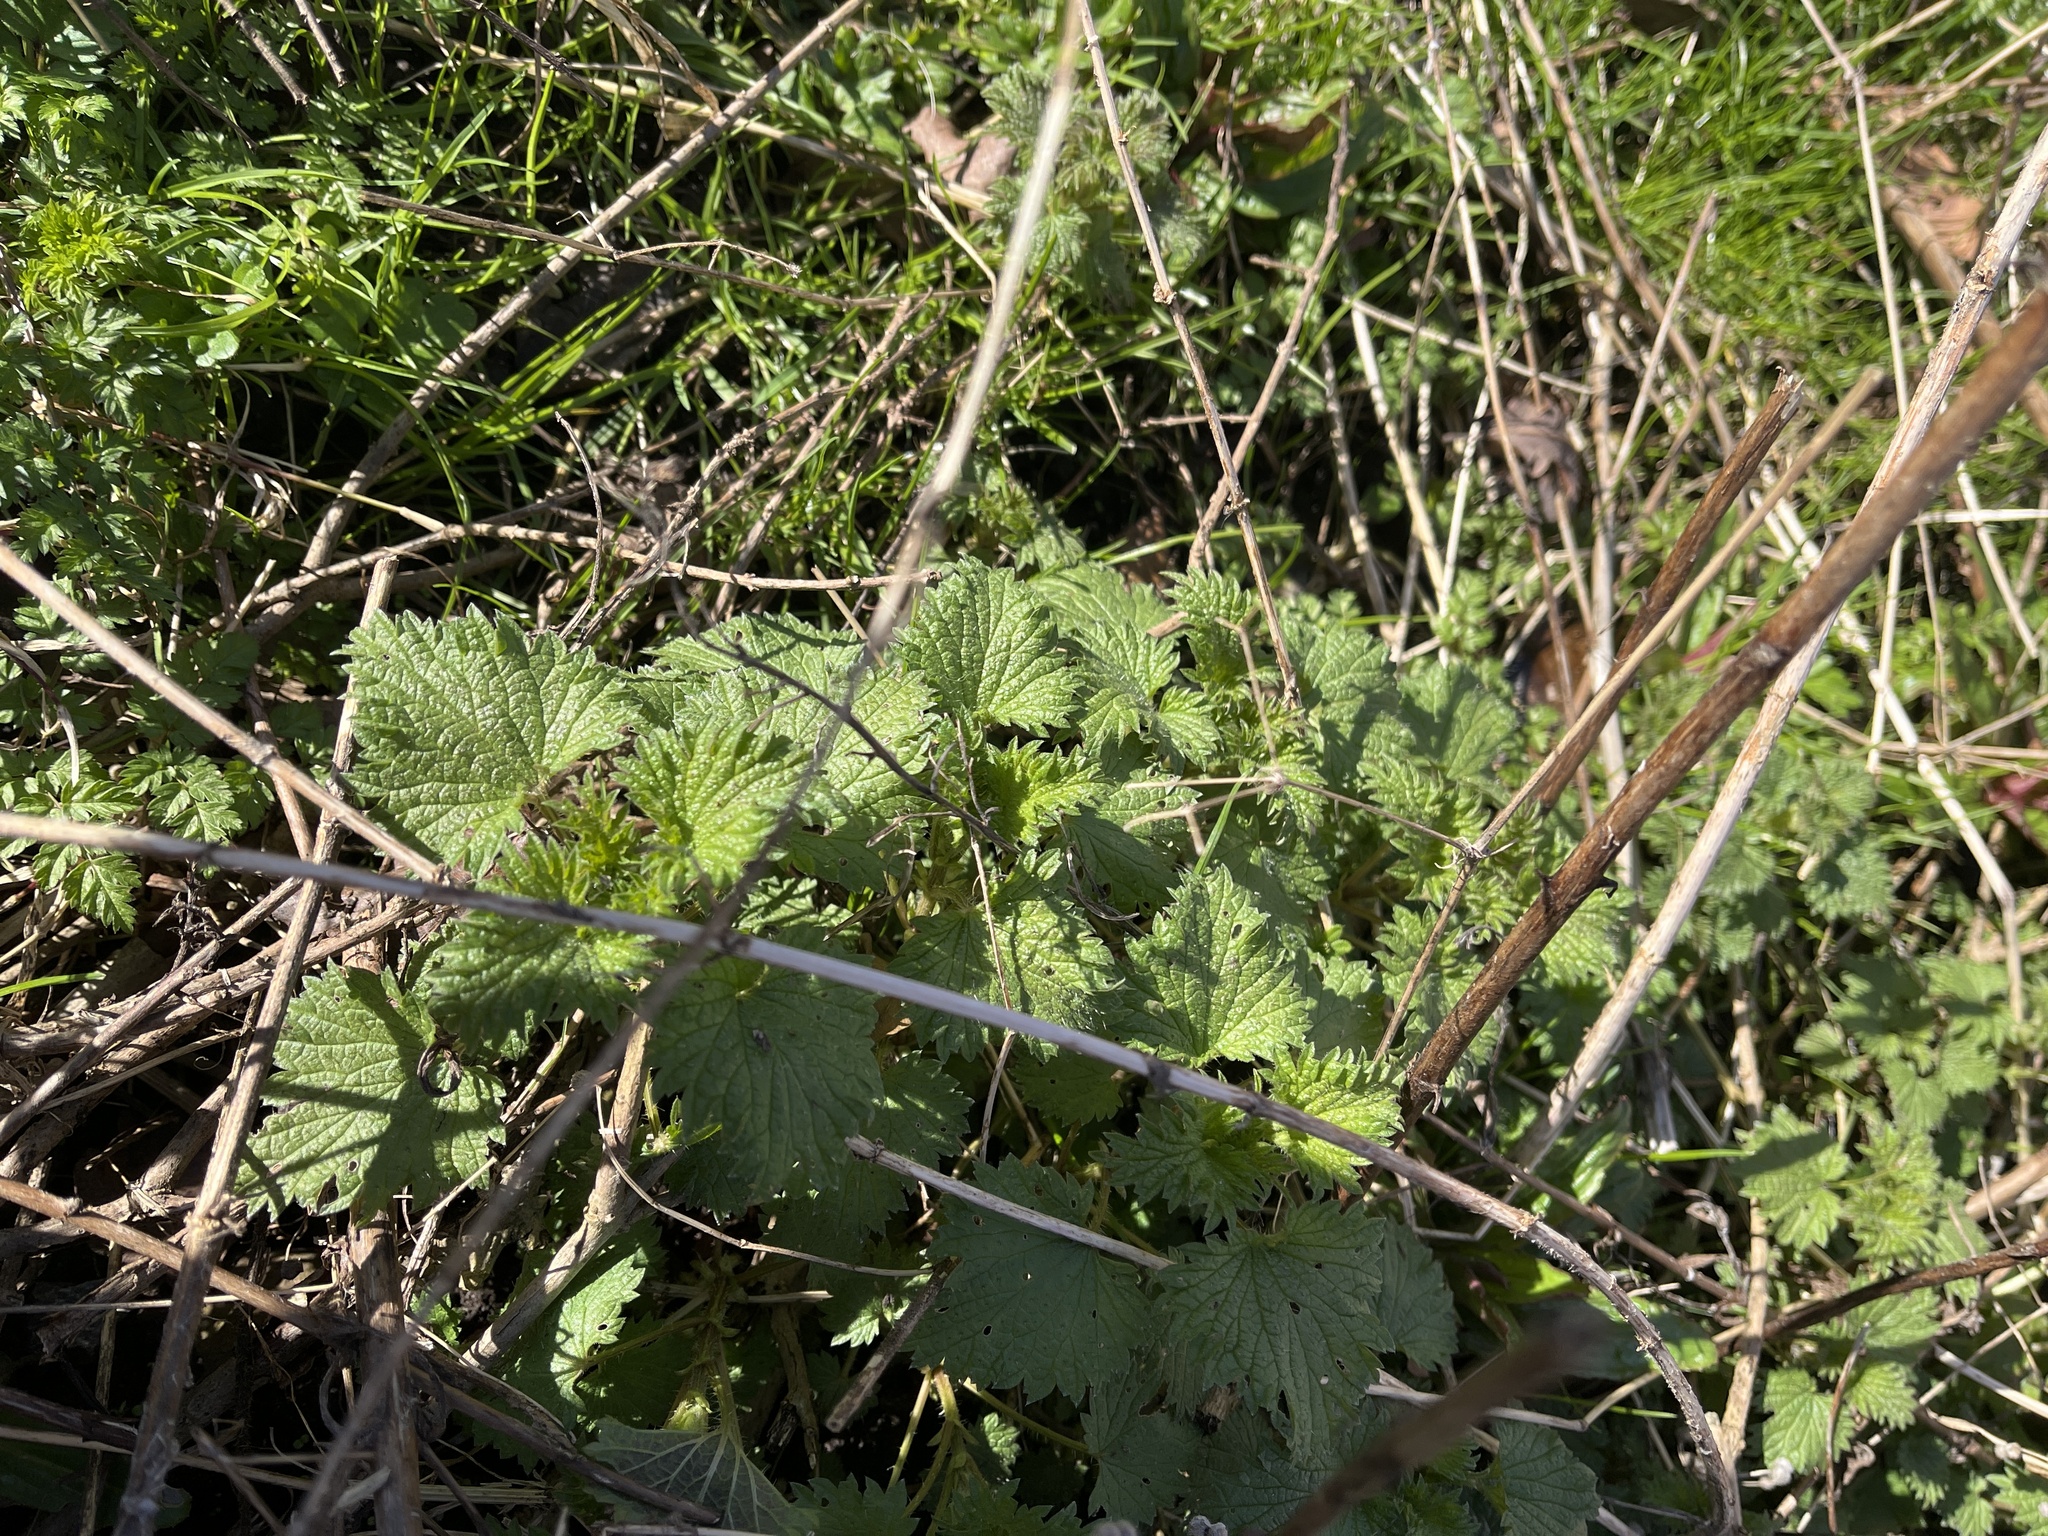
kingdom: Plantae
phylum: Tracheophyta
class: Magnoliopsida
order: Rosales
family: Urticaceae
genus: Urtica
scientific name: Urtica dioica
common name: Common nettle
